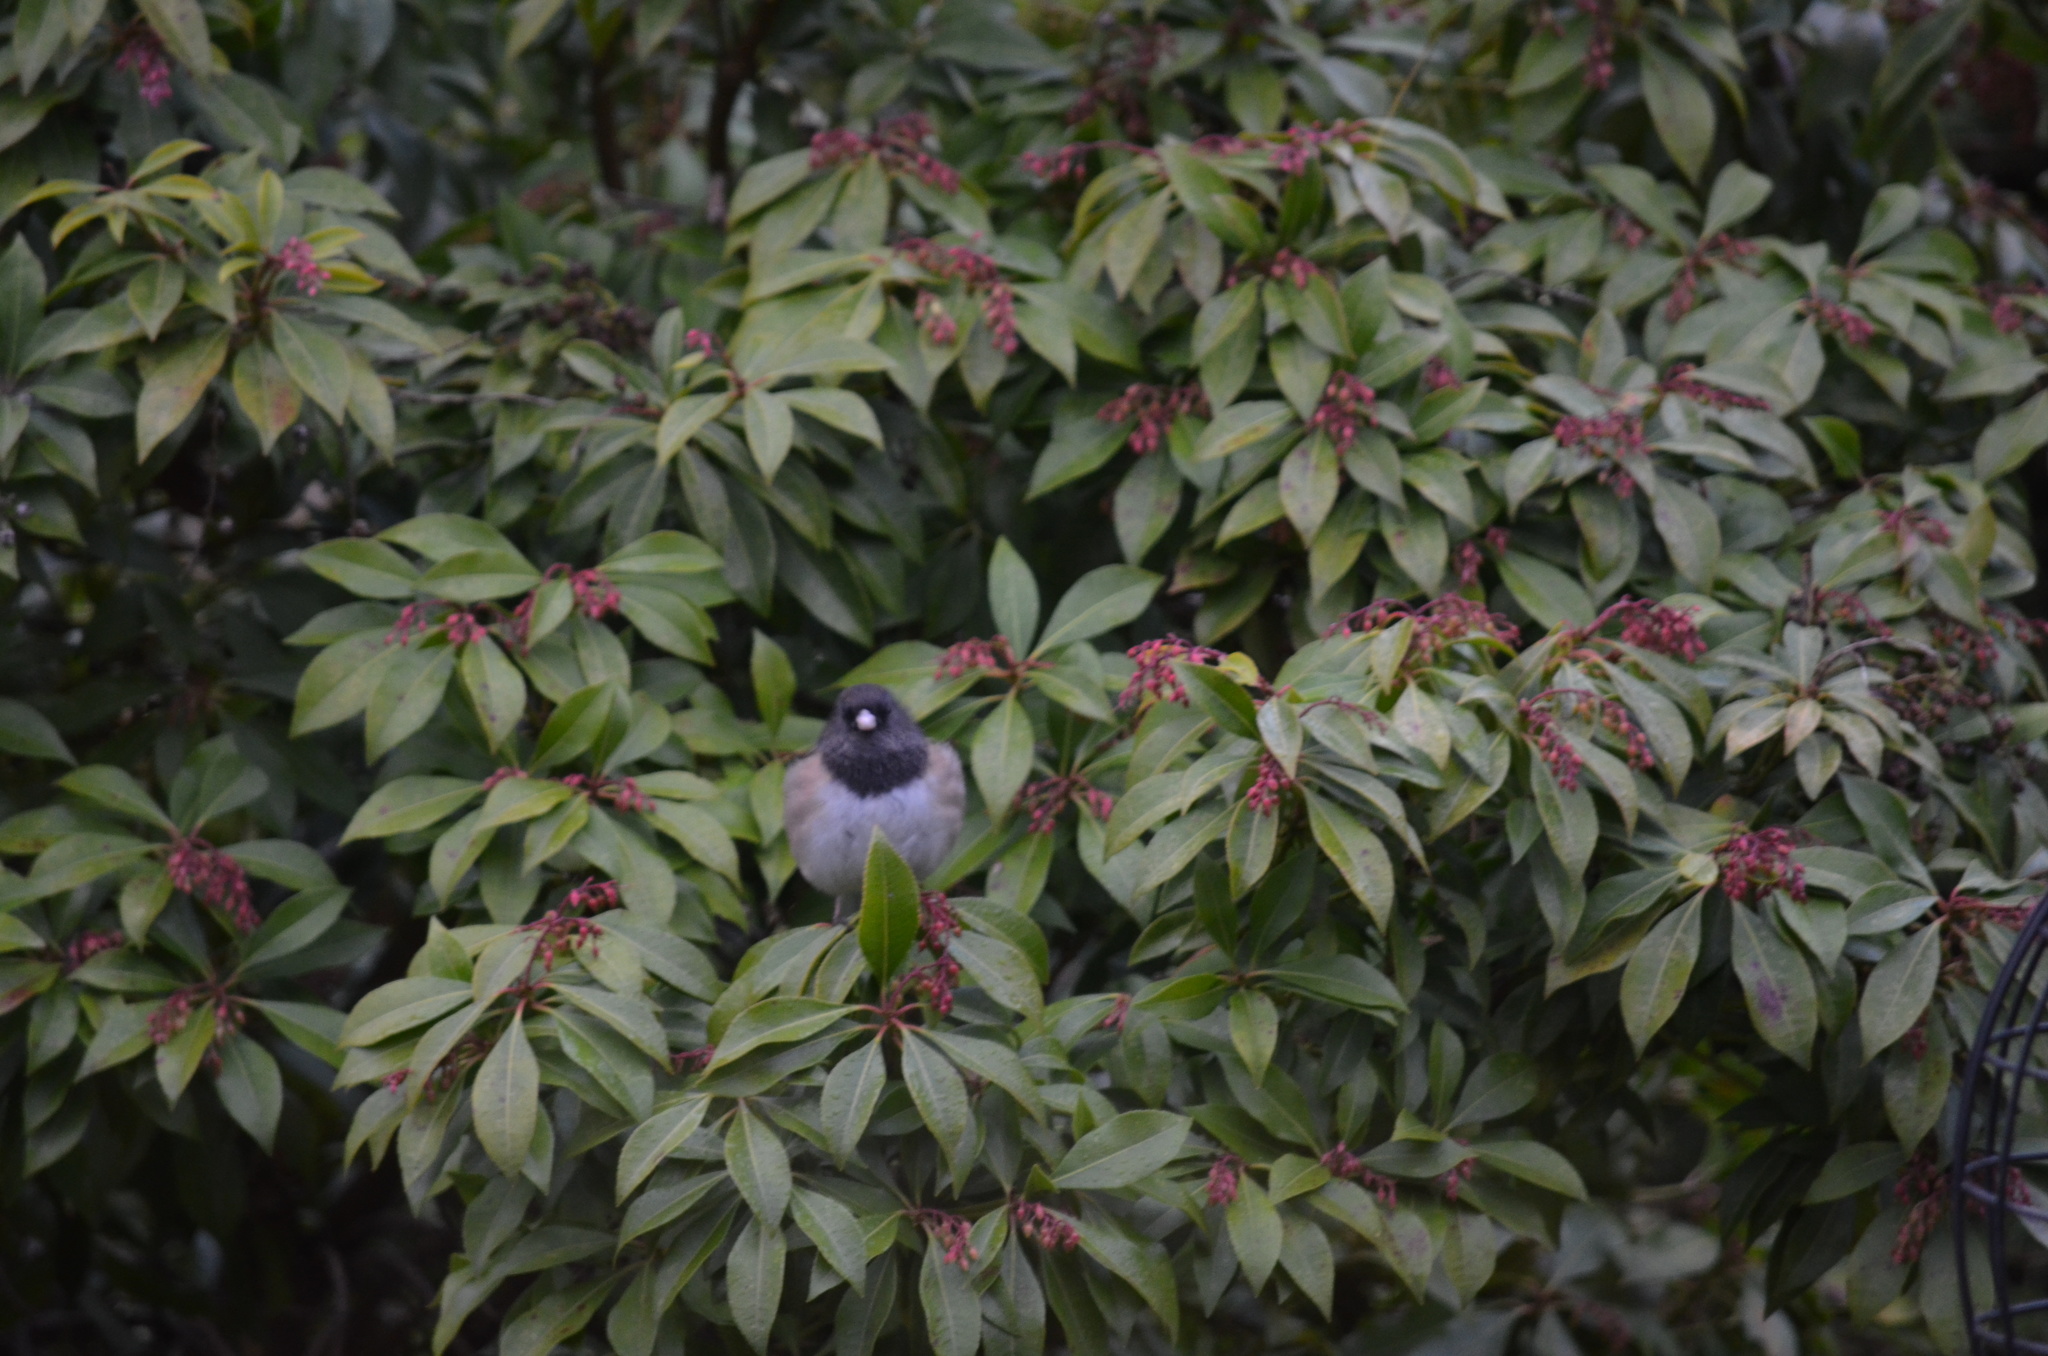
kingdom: Animalia
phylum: Chordata
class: Aves
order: Passeriformes
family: Passerellidae
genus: Junco
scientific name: Junco hyemalis
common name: Dark-eyed junco
